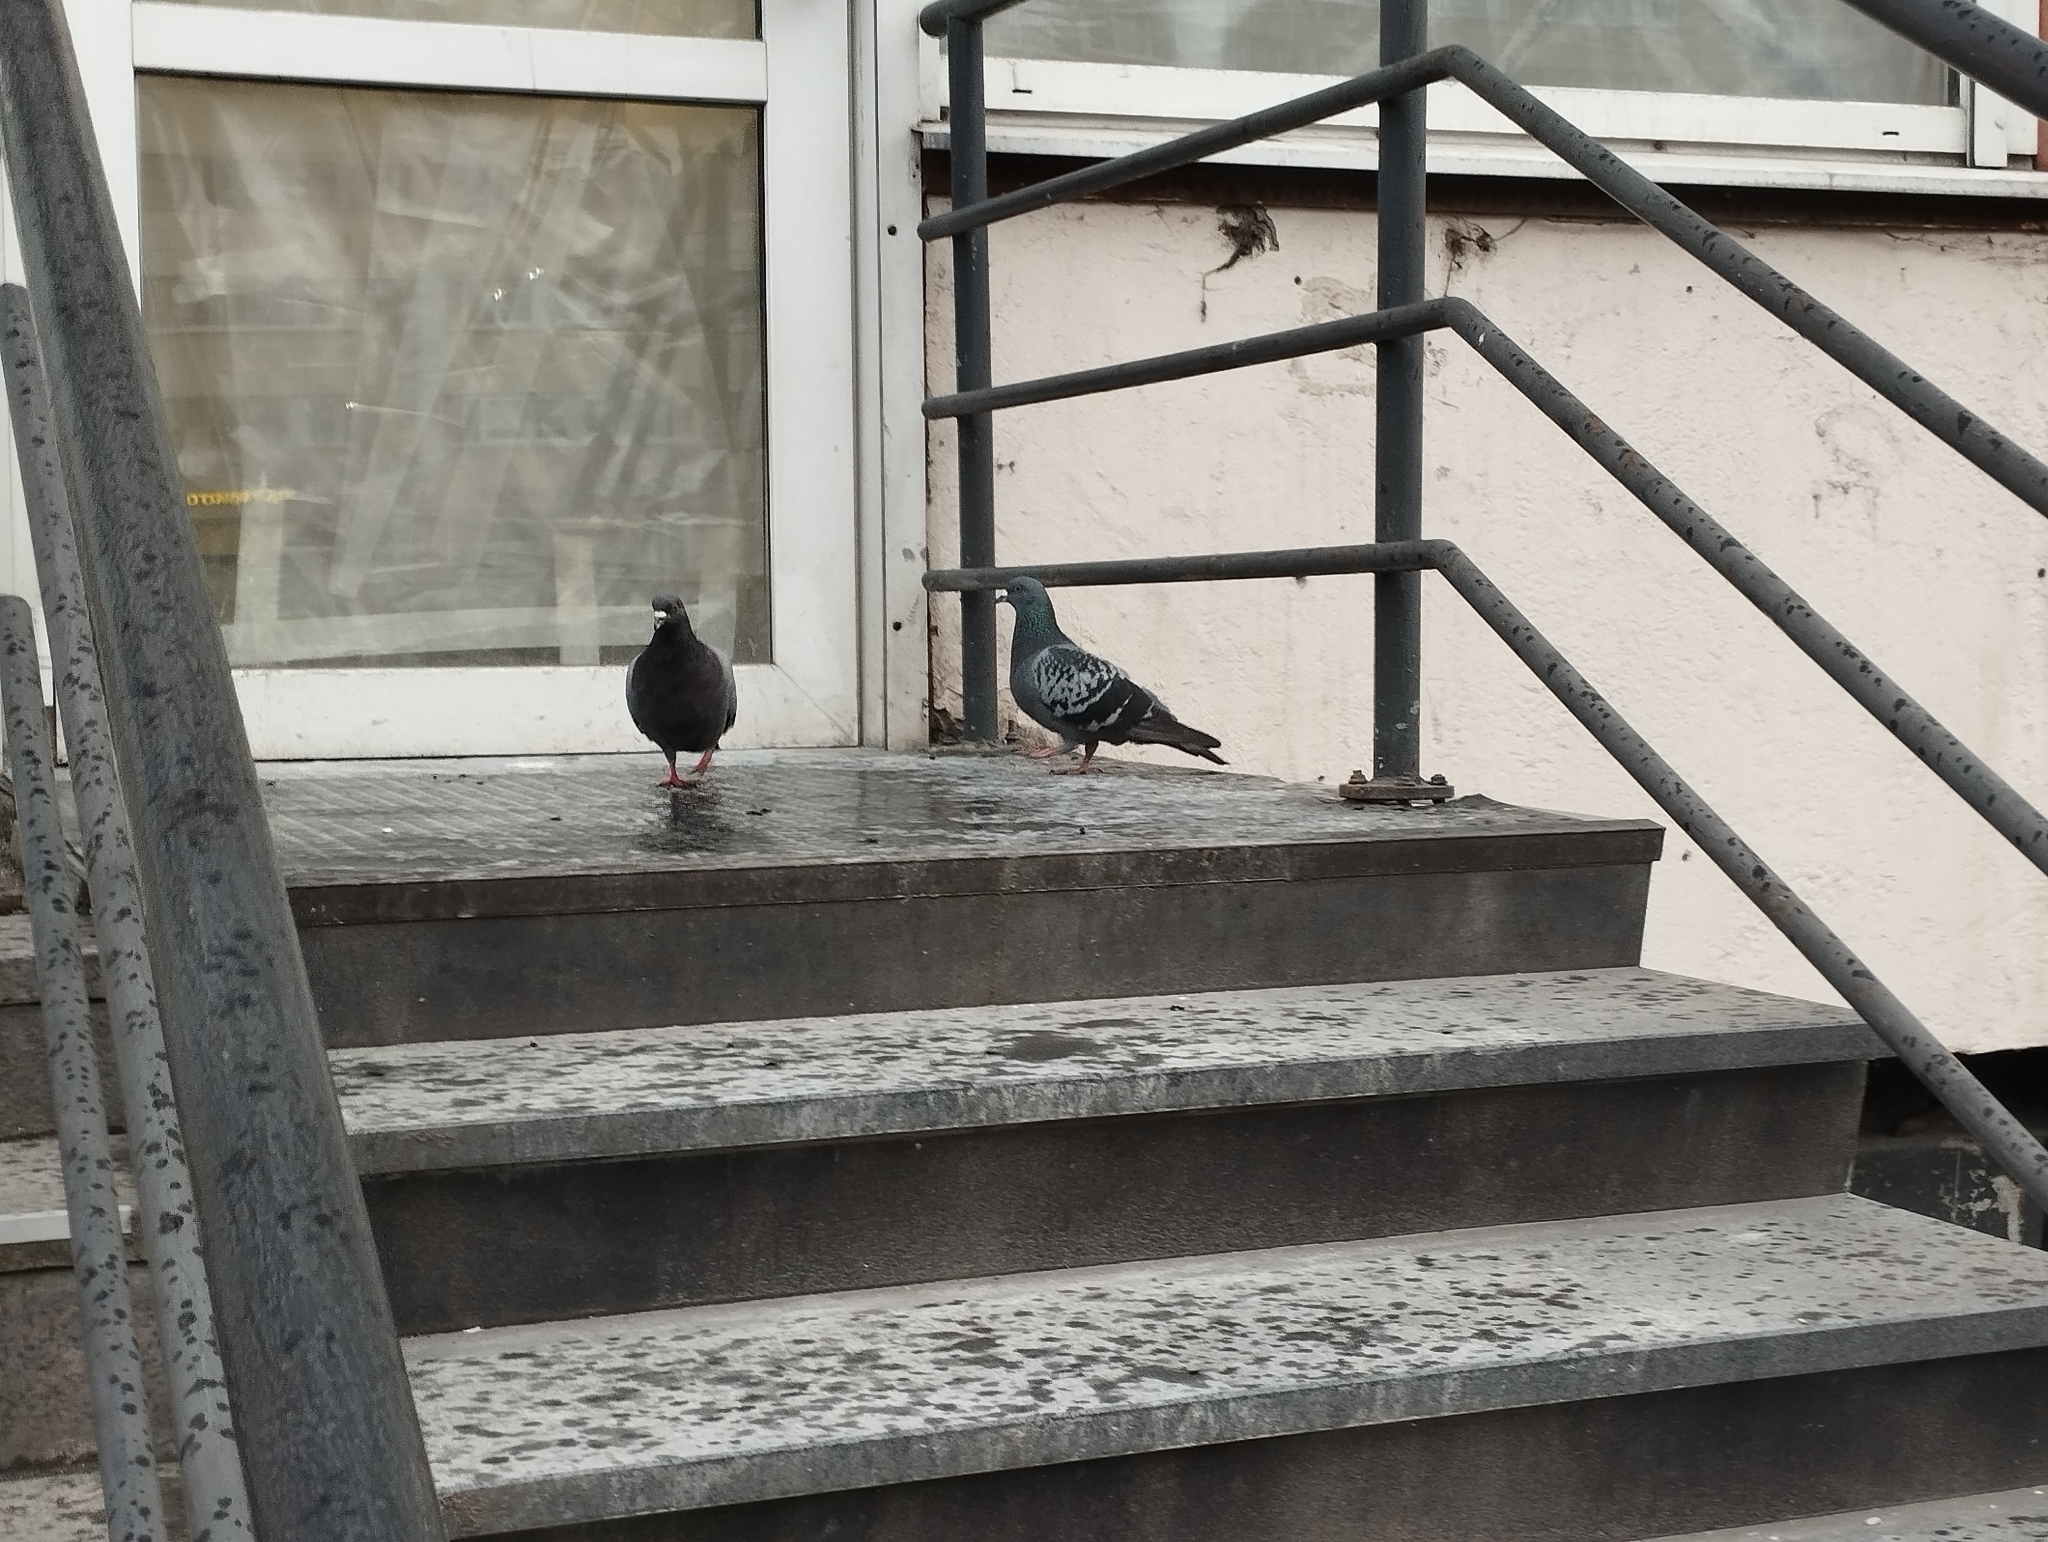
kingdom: Animalia
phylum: Chordata
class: Aves
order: Columbiformes
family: Columbidae
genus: Columba
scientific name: Columba livia
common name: Rock pigeon
